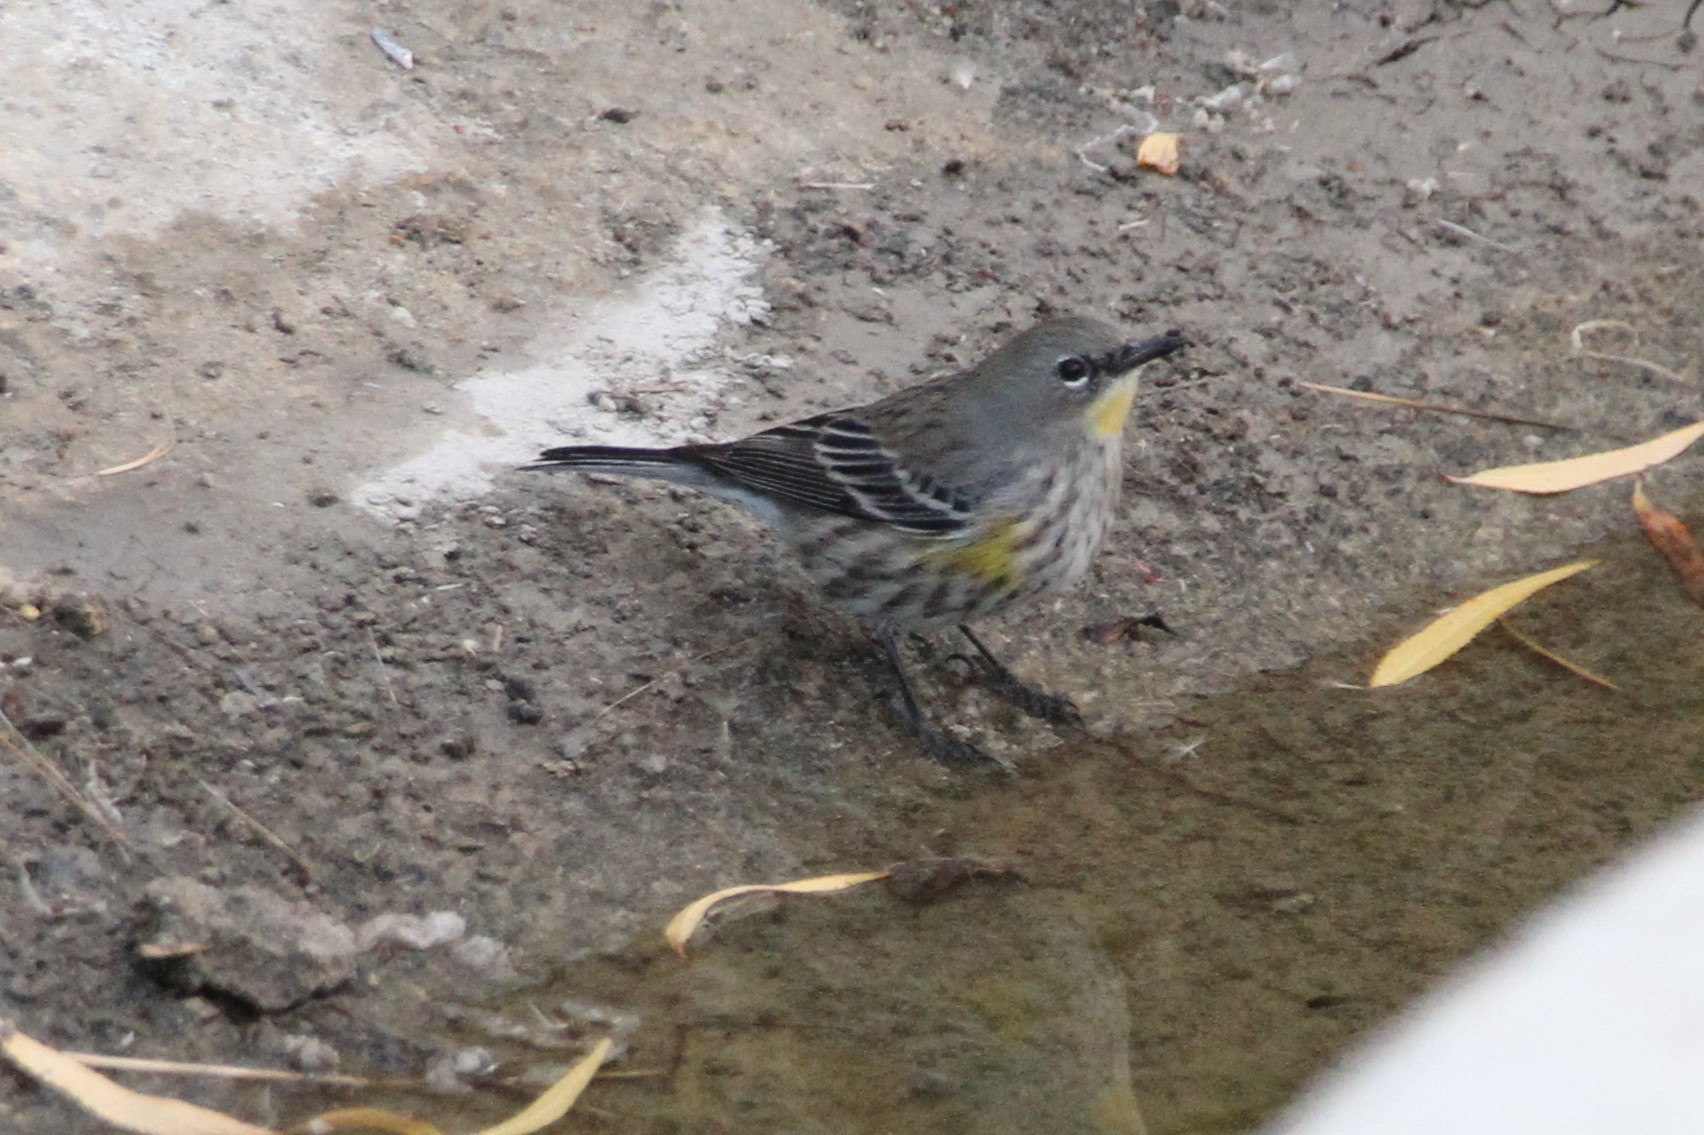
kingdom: Animalia
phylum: Chordata
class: Aves
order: Passeriformes
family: Parulidae
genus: Setophaga
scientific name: Setophaga auduboni
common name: Audubon's warbler
